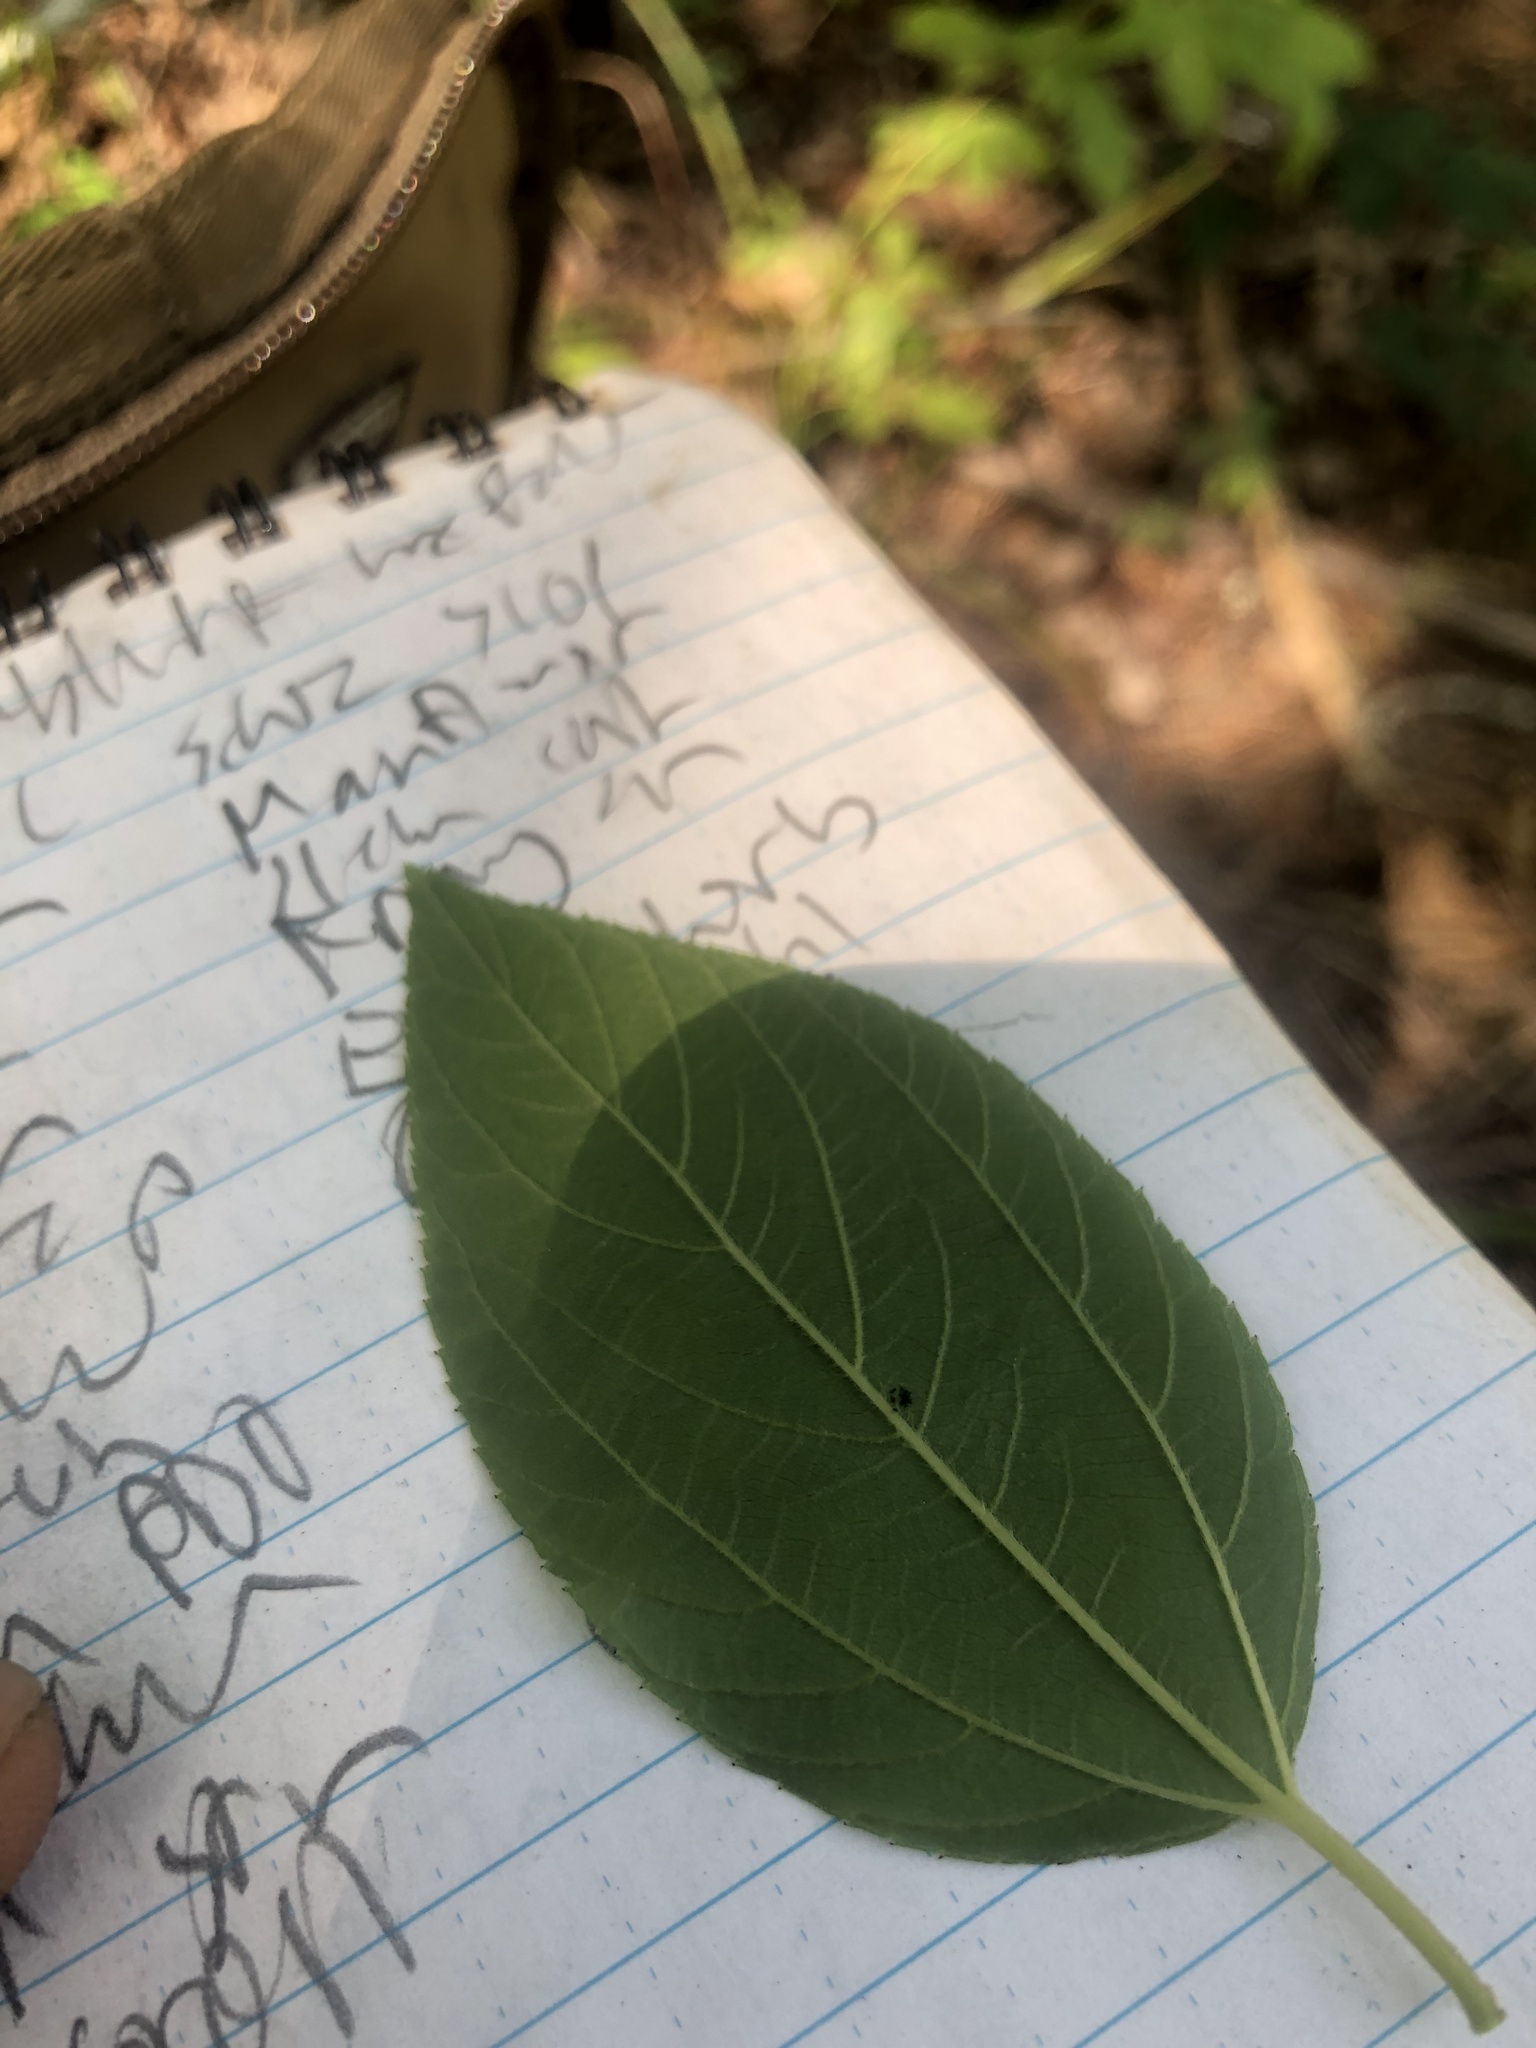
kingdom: Plantae
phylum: Tracheophyta
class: Magnoliopsida
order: Rosales
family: Rhamnaceae
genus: Ceanothus
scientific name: Ceanothus americanus
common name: Redroot
